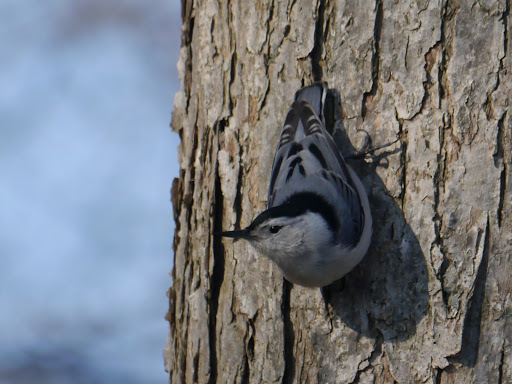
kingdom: Animalia
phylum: Chordata
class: Aves
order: Passeriformes
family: Sittidae
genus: Sitta
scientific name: Sitta carolinensis
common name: White-breasted nuthatch
